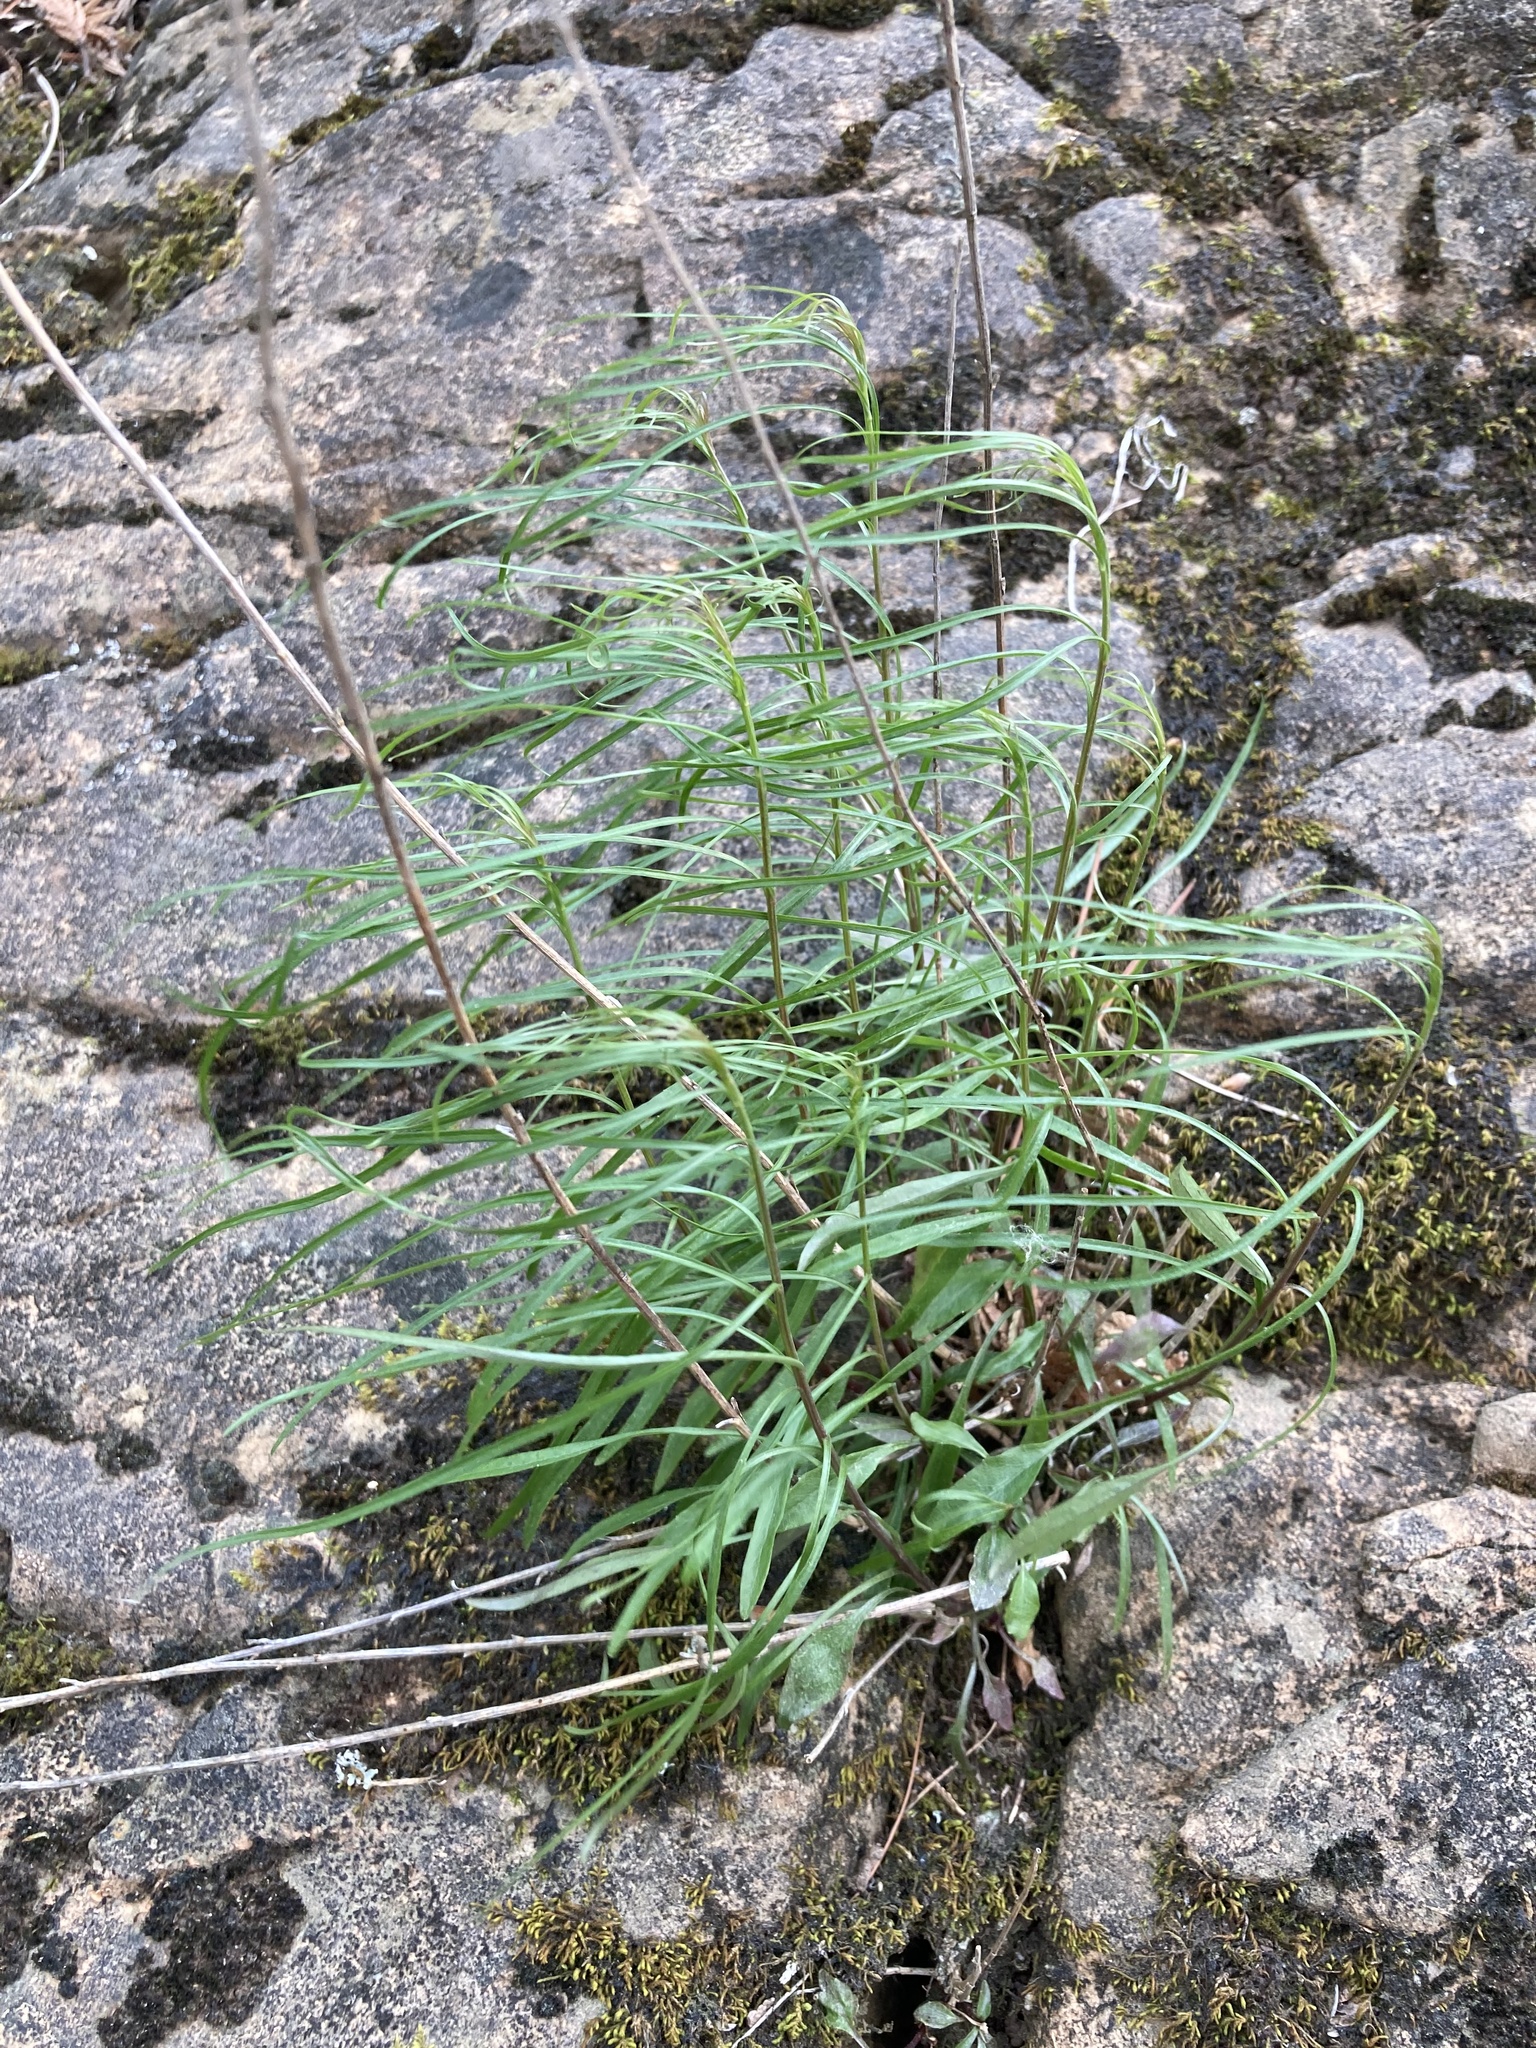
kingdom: Plantae
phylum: Tracheophyta
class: Magnoliopsida
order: Asterales
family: Campanulaceae
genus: Campanula
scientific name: Campanula intercedens
